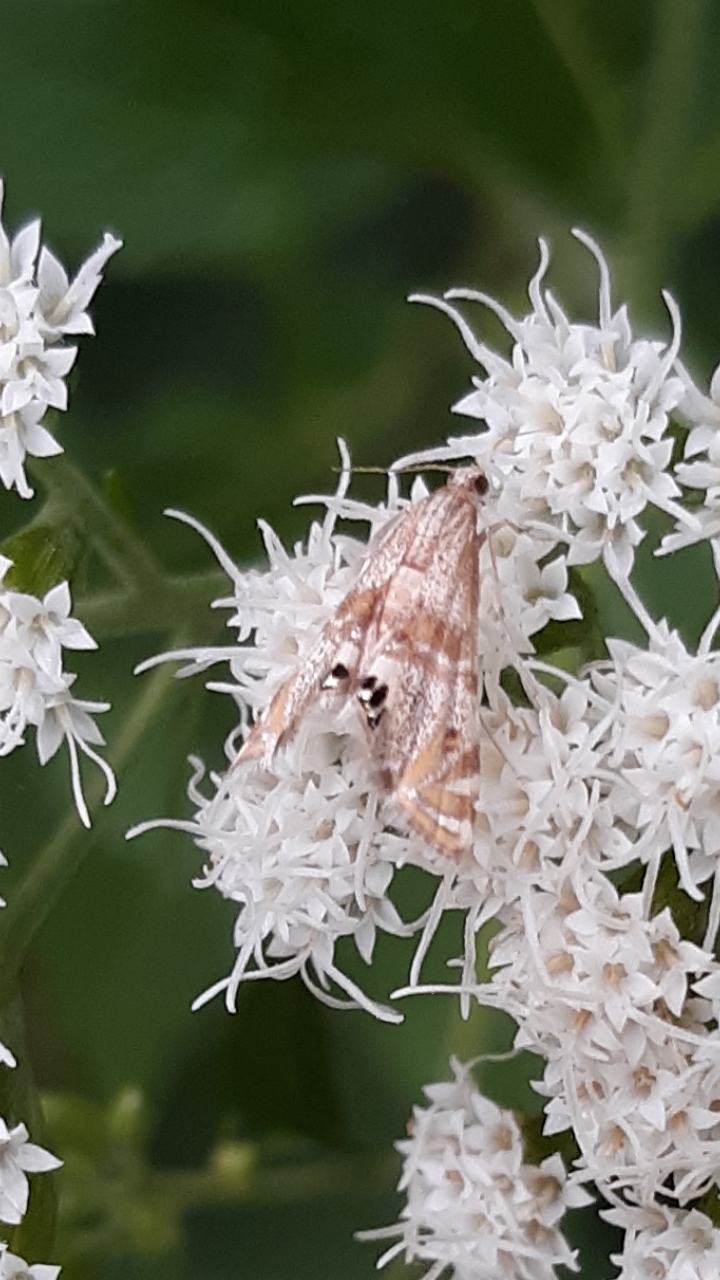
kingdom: Animalia
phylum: Arthropoda
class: Insecta
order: Lepidoptera
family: Crambidae
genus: Petrophila
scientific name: Petrophila bifascialis
